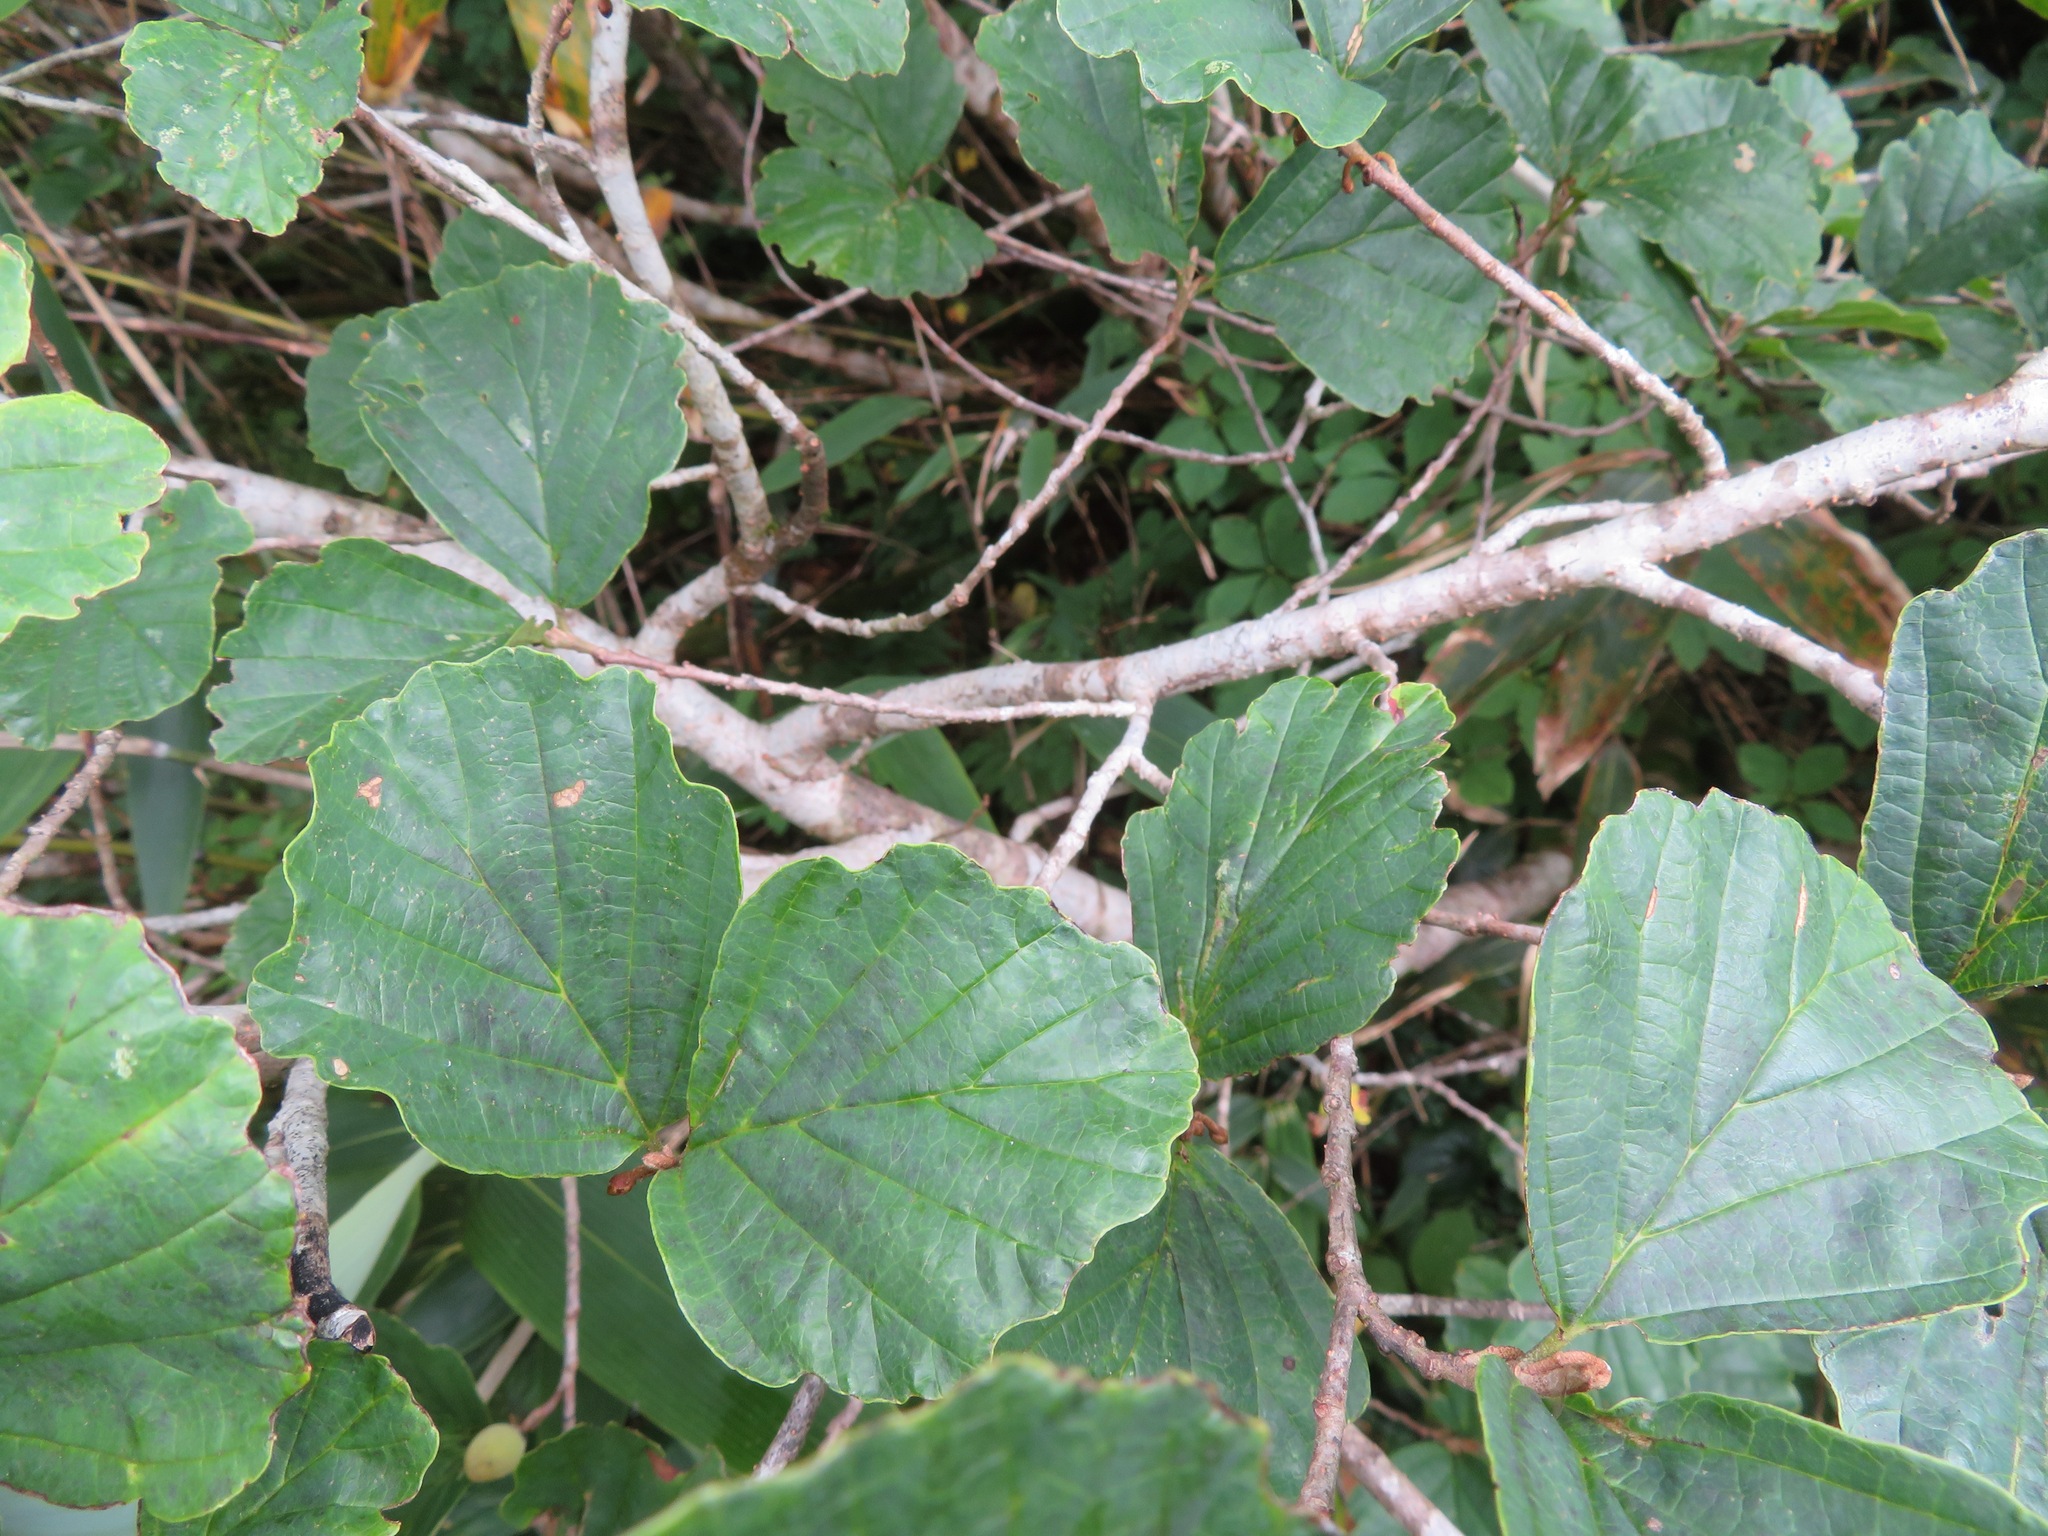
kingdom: Plantae
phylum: Tracheophyta
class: Magnoliopsida
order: Saxifragales
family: Hamamelidaceae
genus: Hamamelis
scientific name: Hamamelis japonica
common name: Japanese witch-hazel
